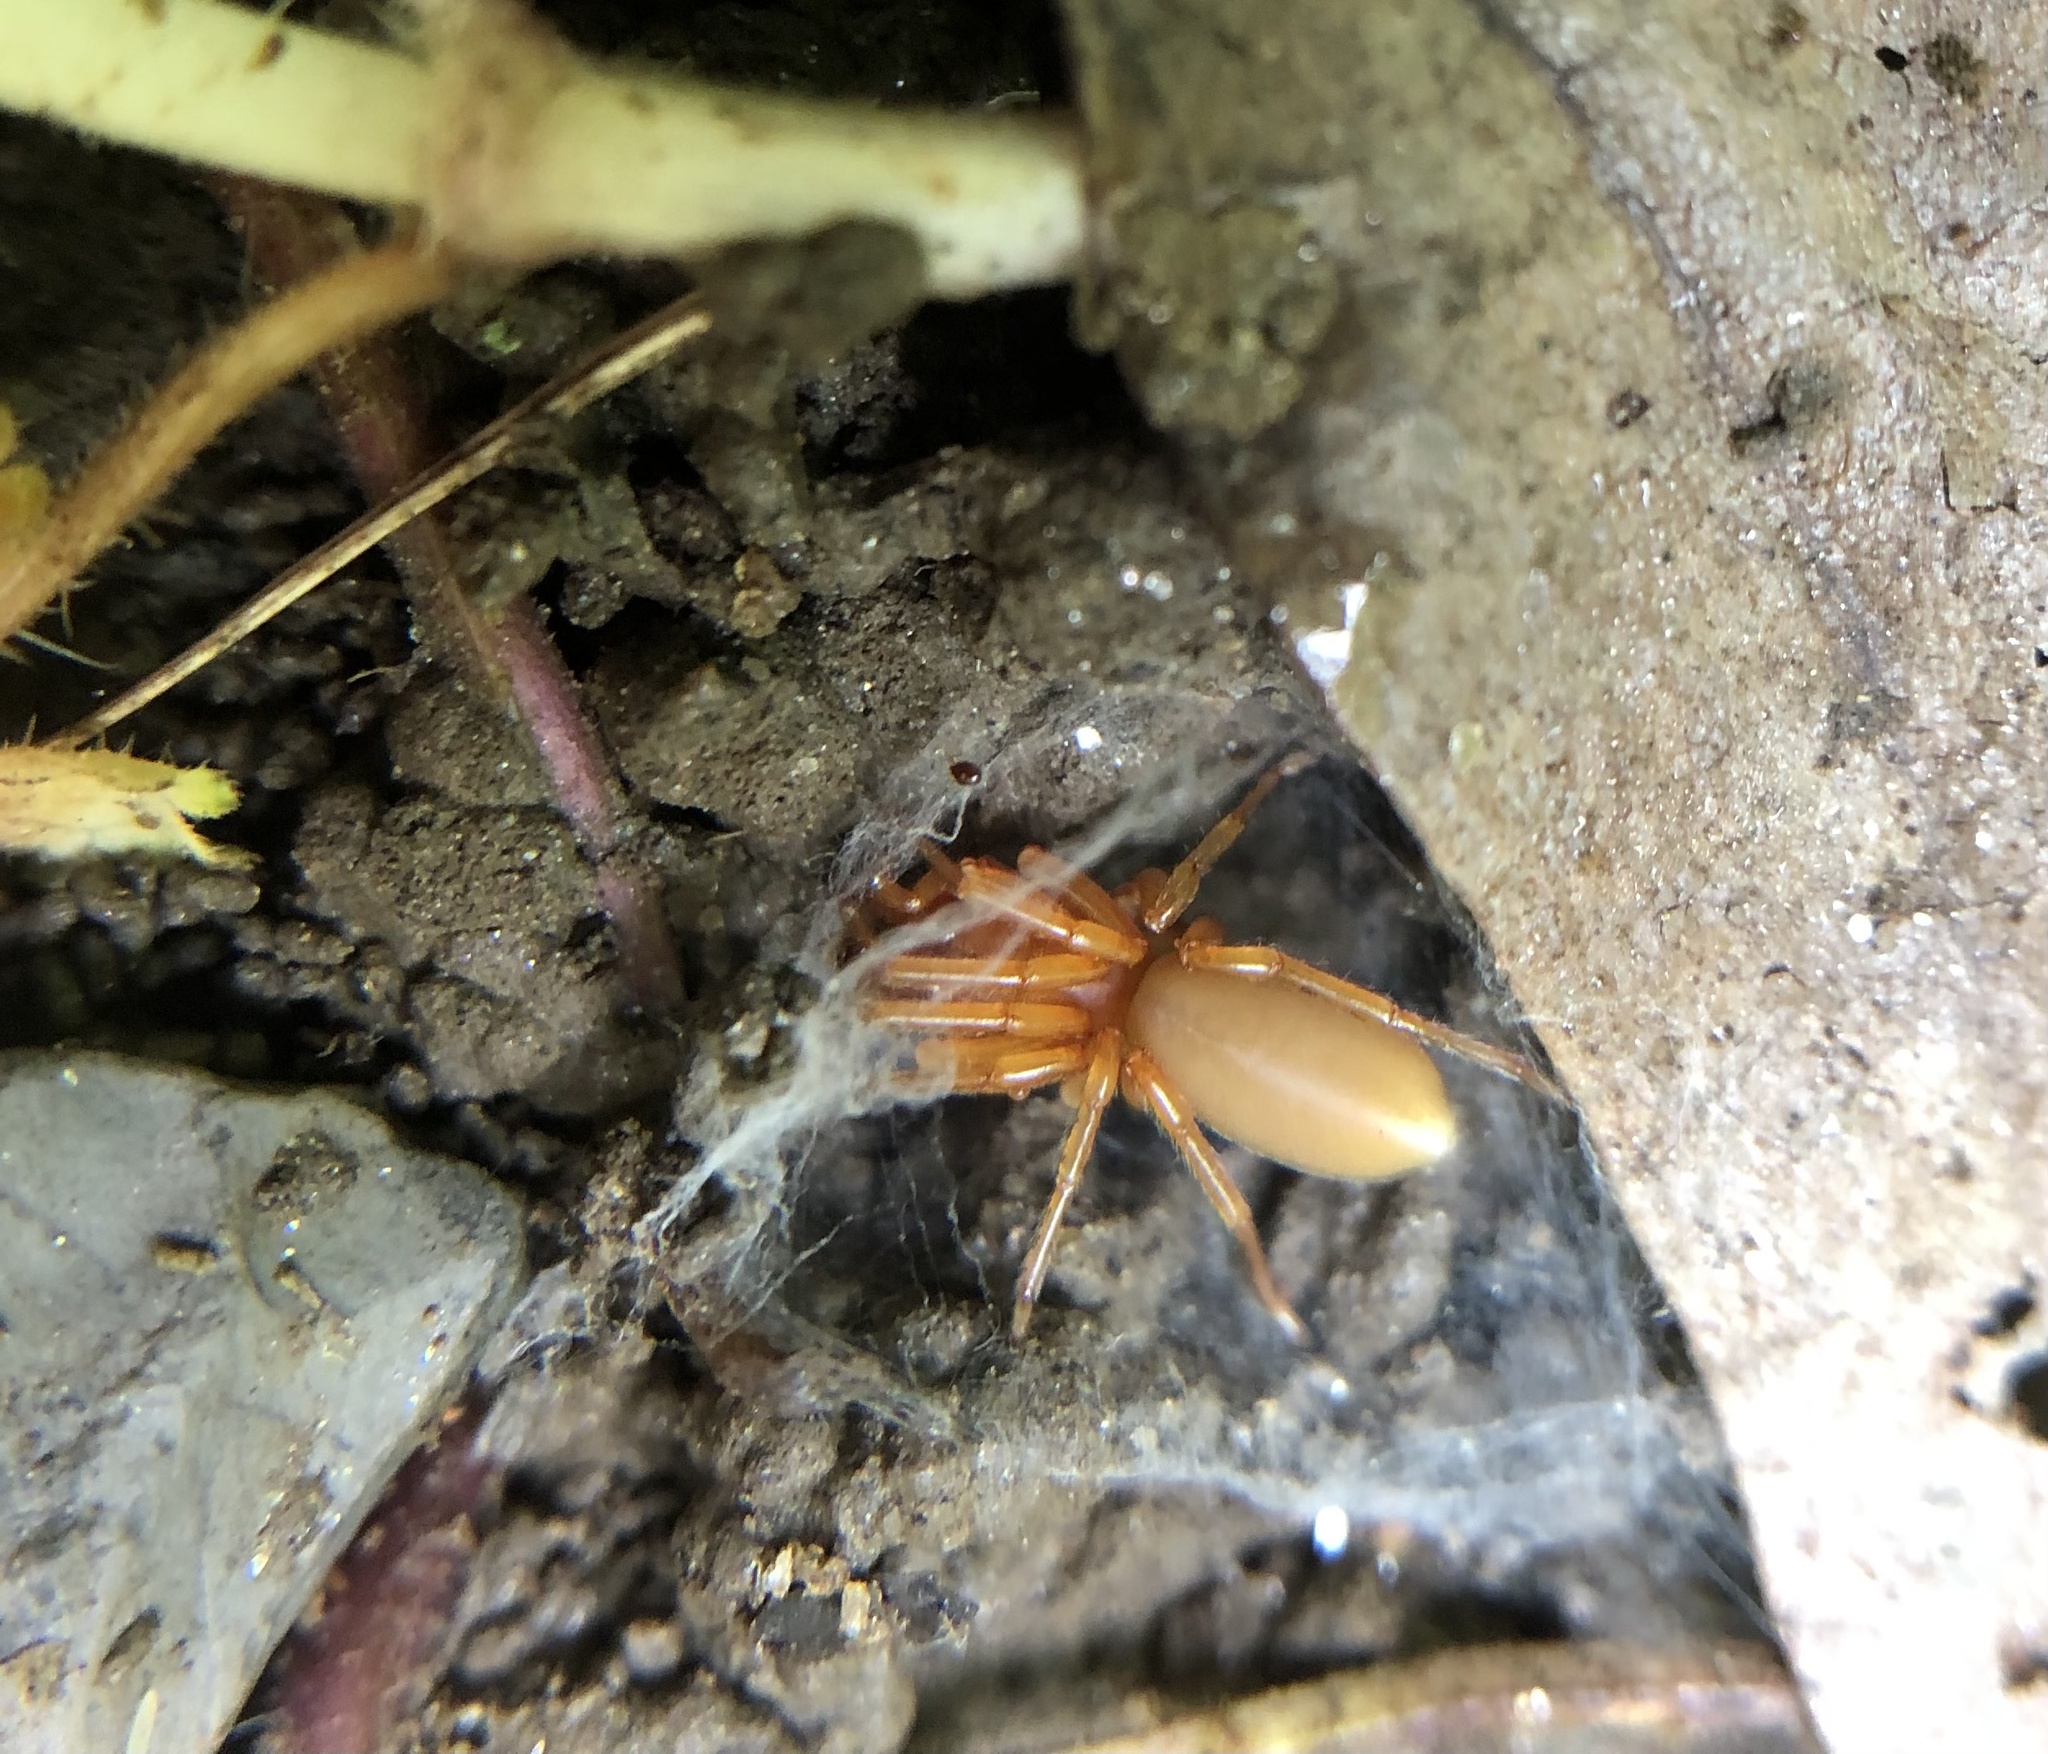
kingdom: Animalia
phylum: Arthropoda
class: Arachnida
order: Araneae
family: Dysderidae
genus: Dysdera
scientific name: Dysdera crocata
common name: Woodlouse spider
